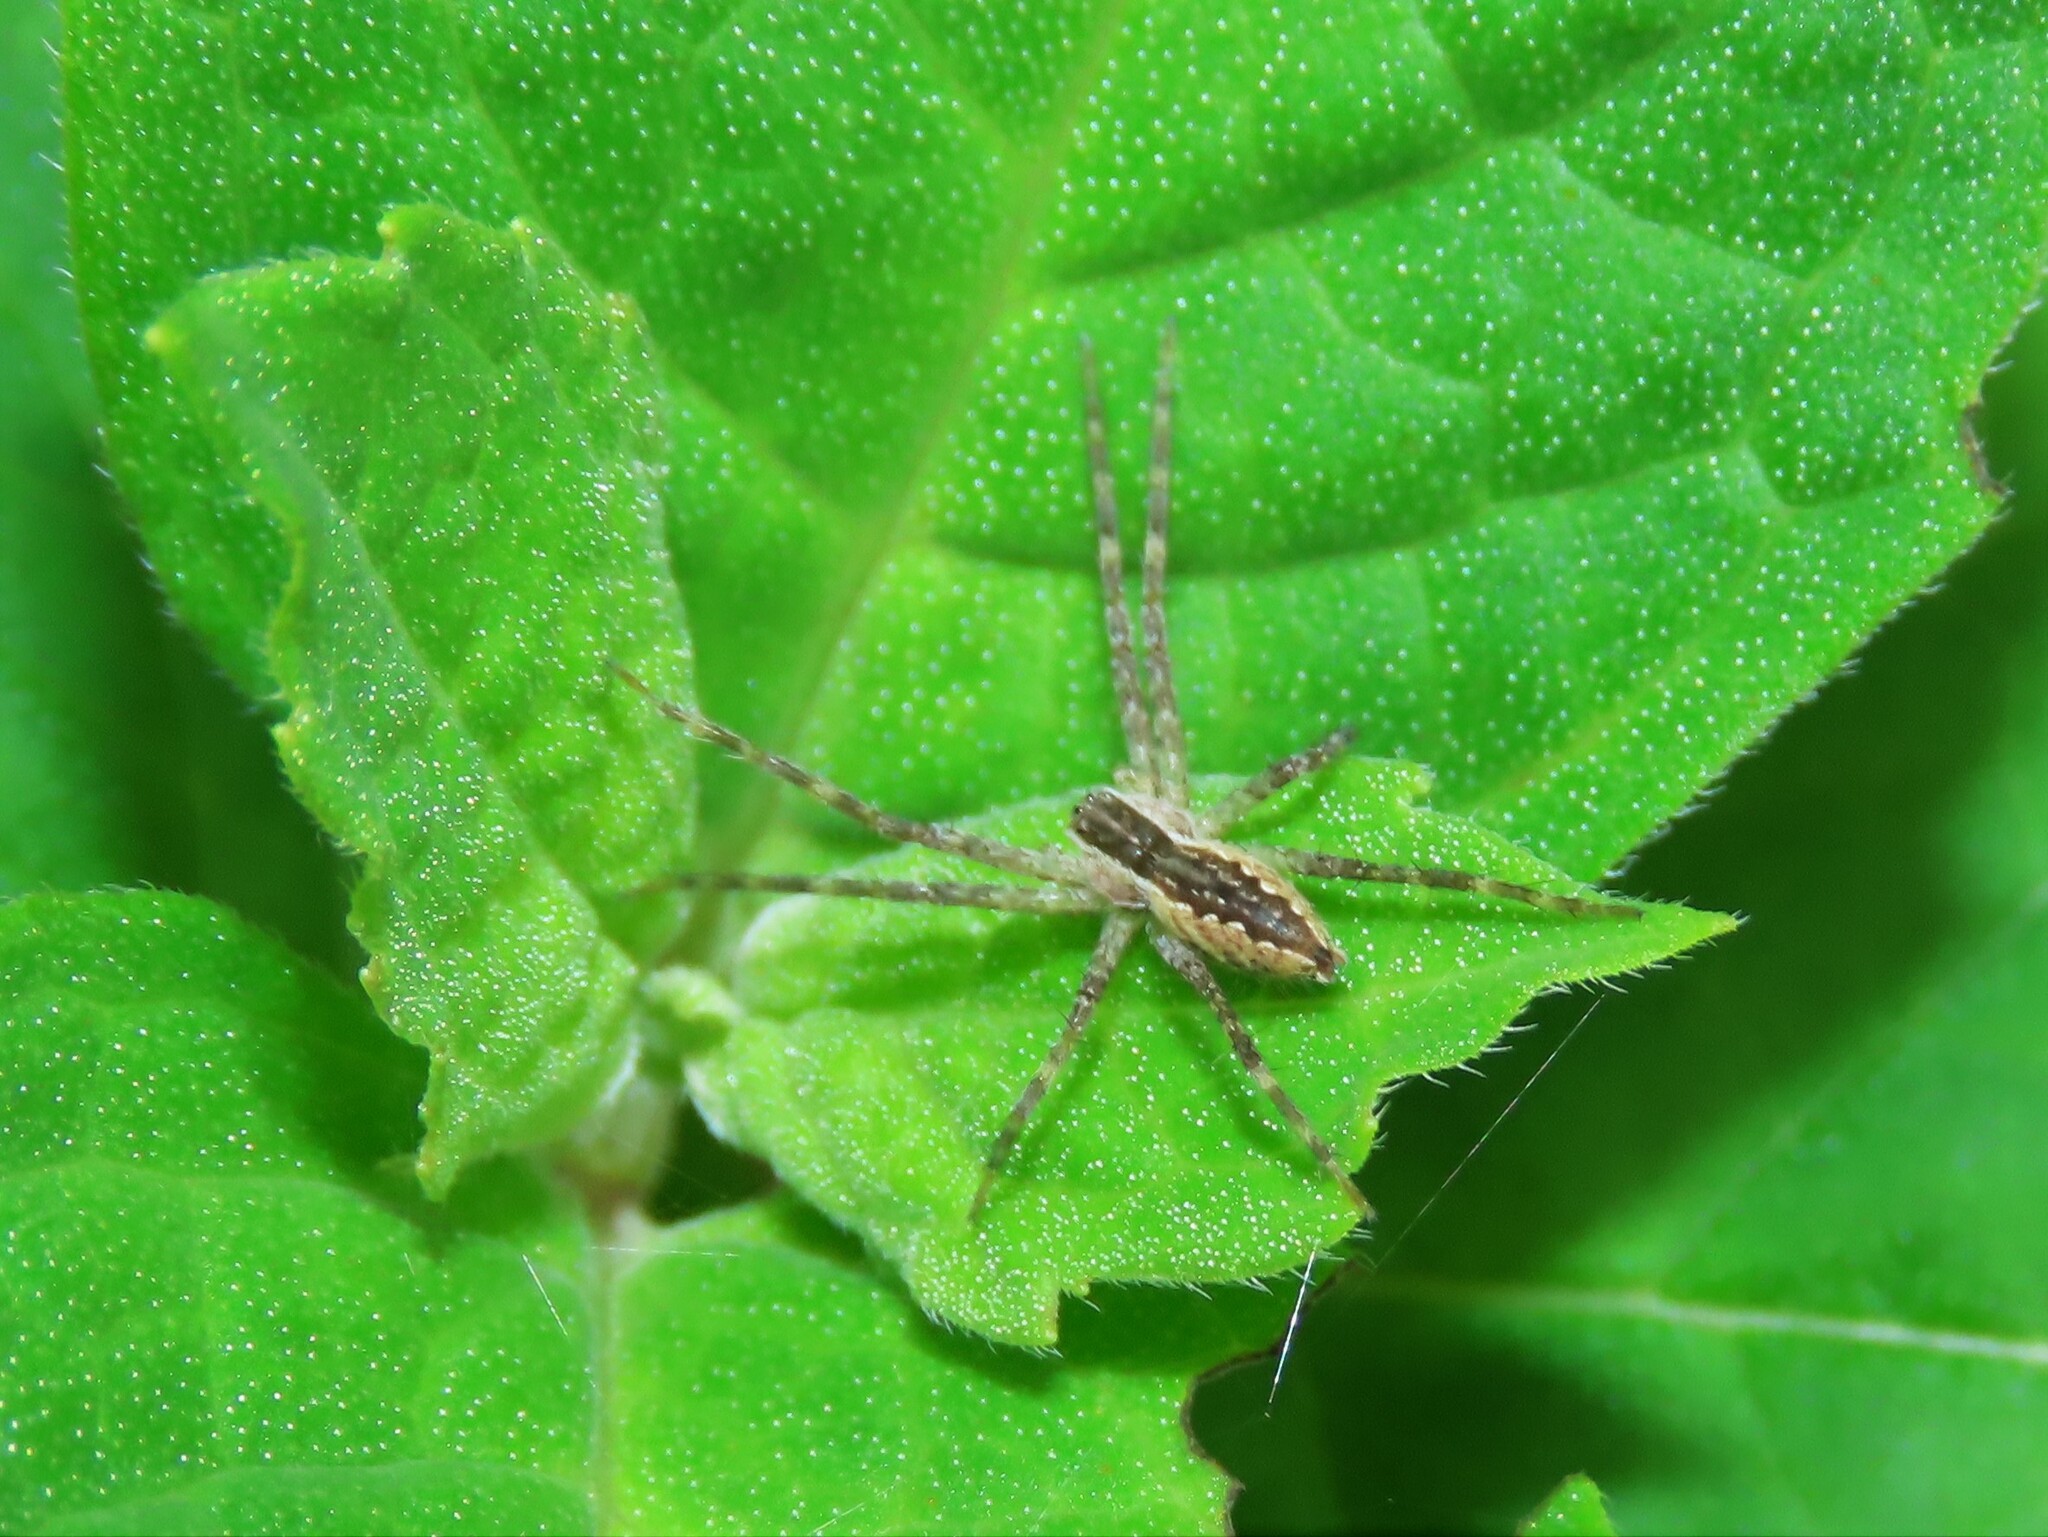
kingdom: Animalia
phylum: Arthropoda
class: Arachnida
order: Araneae
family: Pisauridae
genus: Pisaurina
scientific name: Pisaurina mira
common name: American nursery web spider
